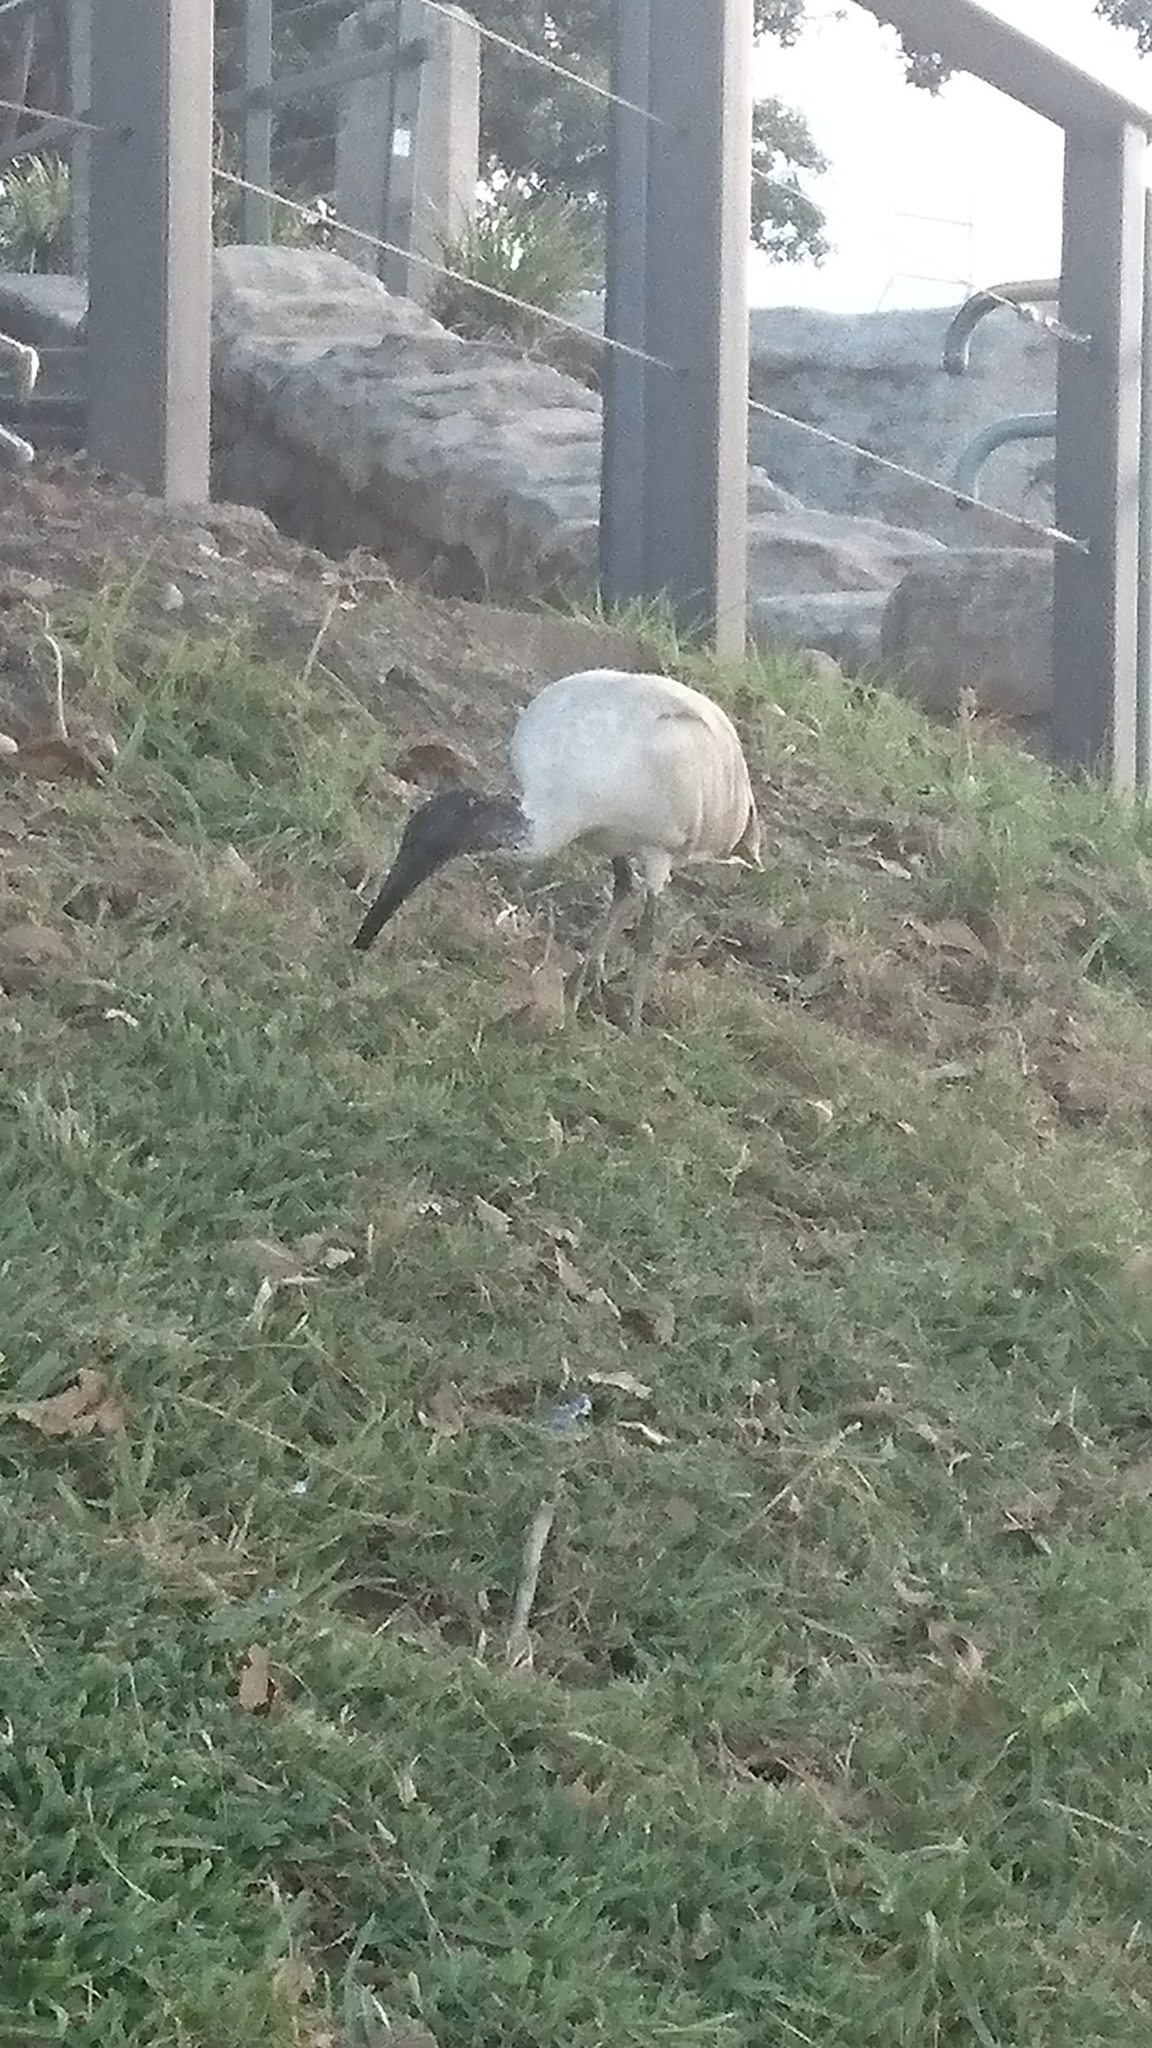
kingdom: Animalia
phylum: Chordata
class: Aves
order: Pelecaniformes
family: Threskiornithidae
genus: Threskiornis
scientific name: Threskiornis molucca
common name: Australian white ibis
